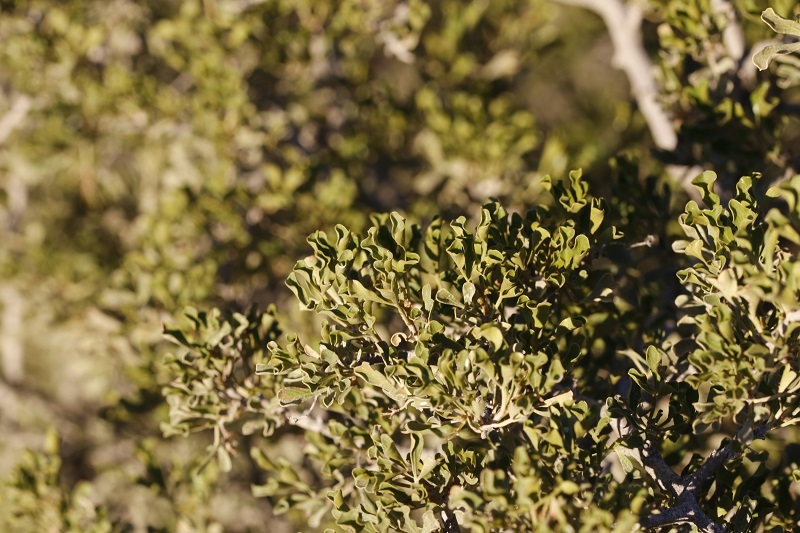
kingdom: Plantae
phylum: Tracheophyta
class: Magnoliopsida
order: Sapindales
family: Anacardiaceae
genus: Searsia
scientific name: Searsia burchellii
